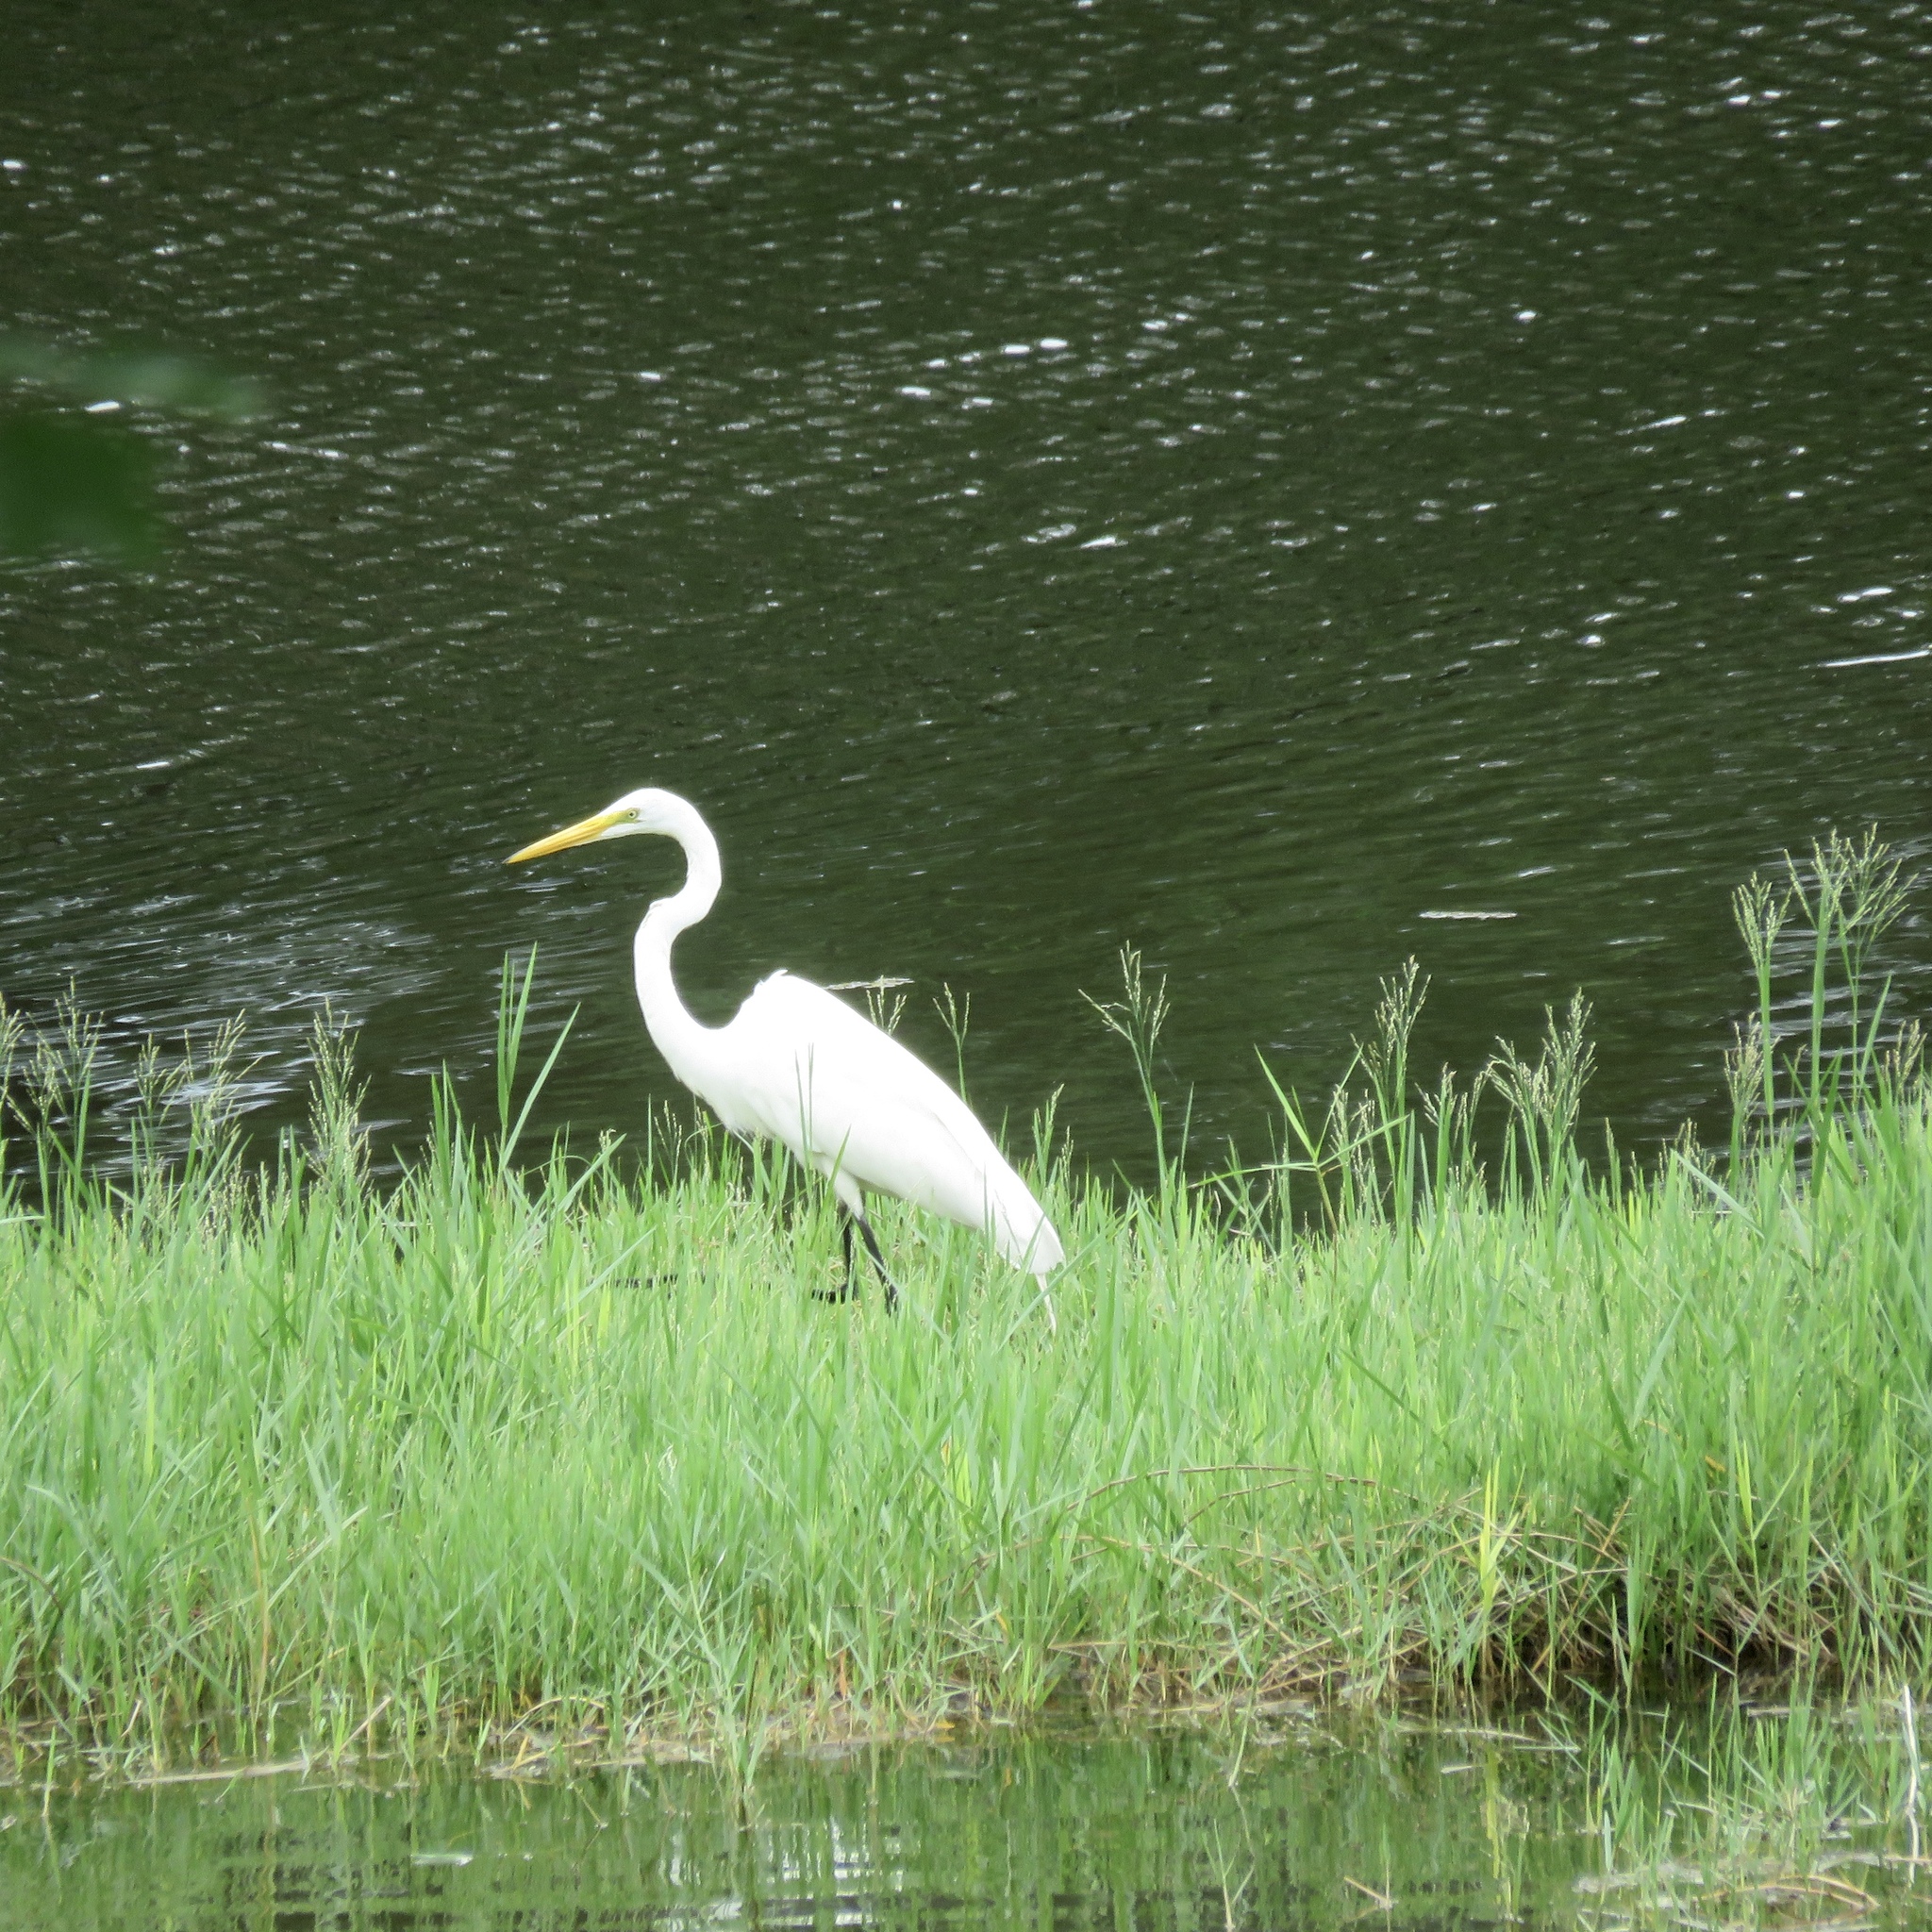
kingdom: Animalia
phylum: Chordata
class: Aves
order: Pelecaniformes
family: Ardeidae
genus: Ardea
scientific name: Ardea alba
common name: Great egret
